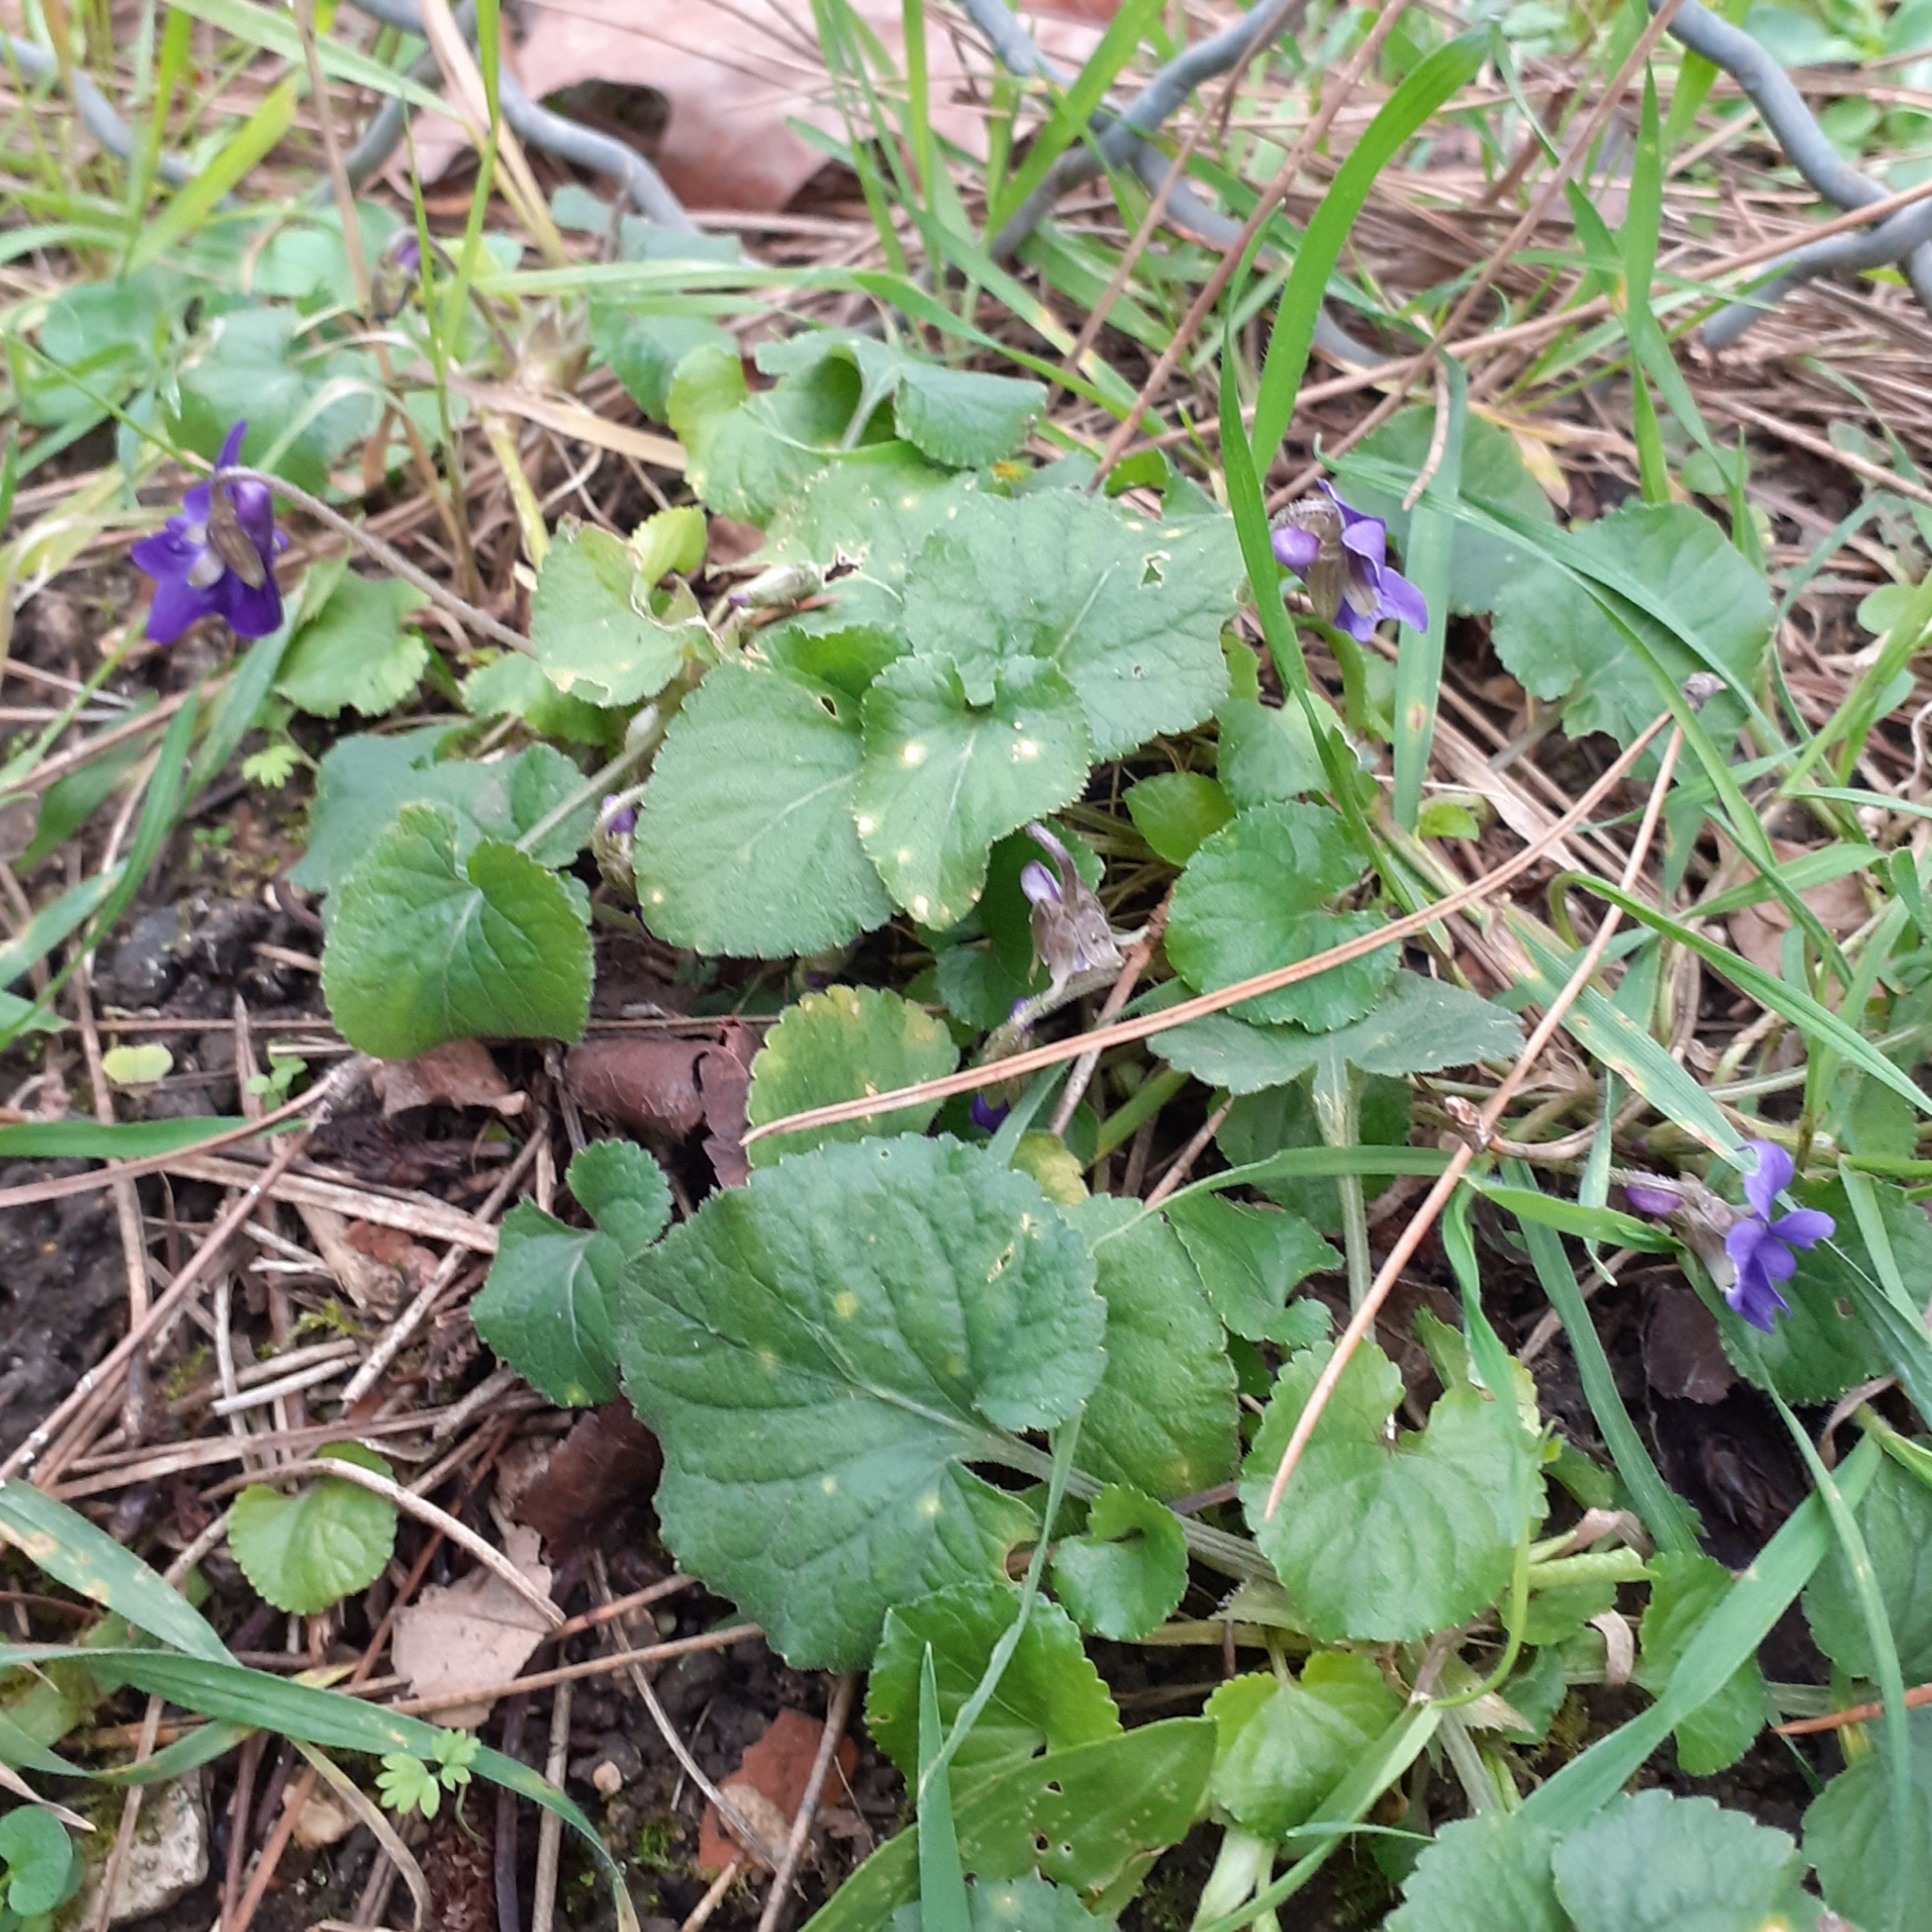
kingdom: Plantae
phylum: Tracheophyta
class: Magnoliopsida
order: Malpighiales
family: Violaceae
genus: Viola
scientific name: Viola odorata
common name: Sweet violet
